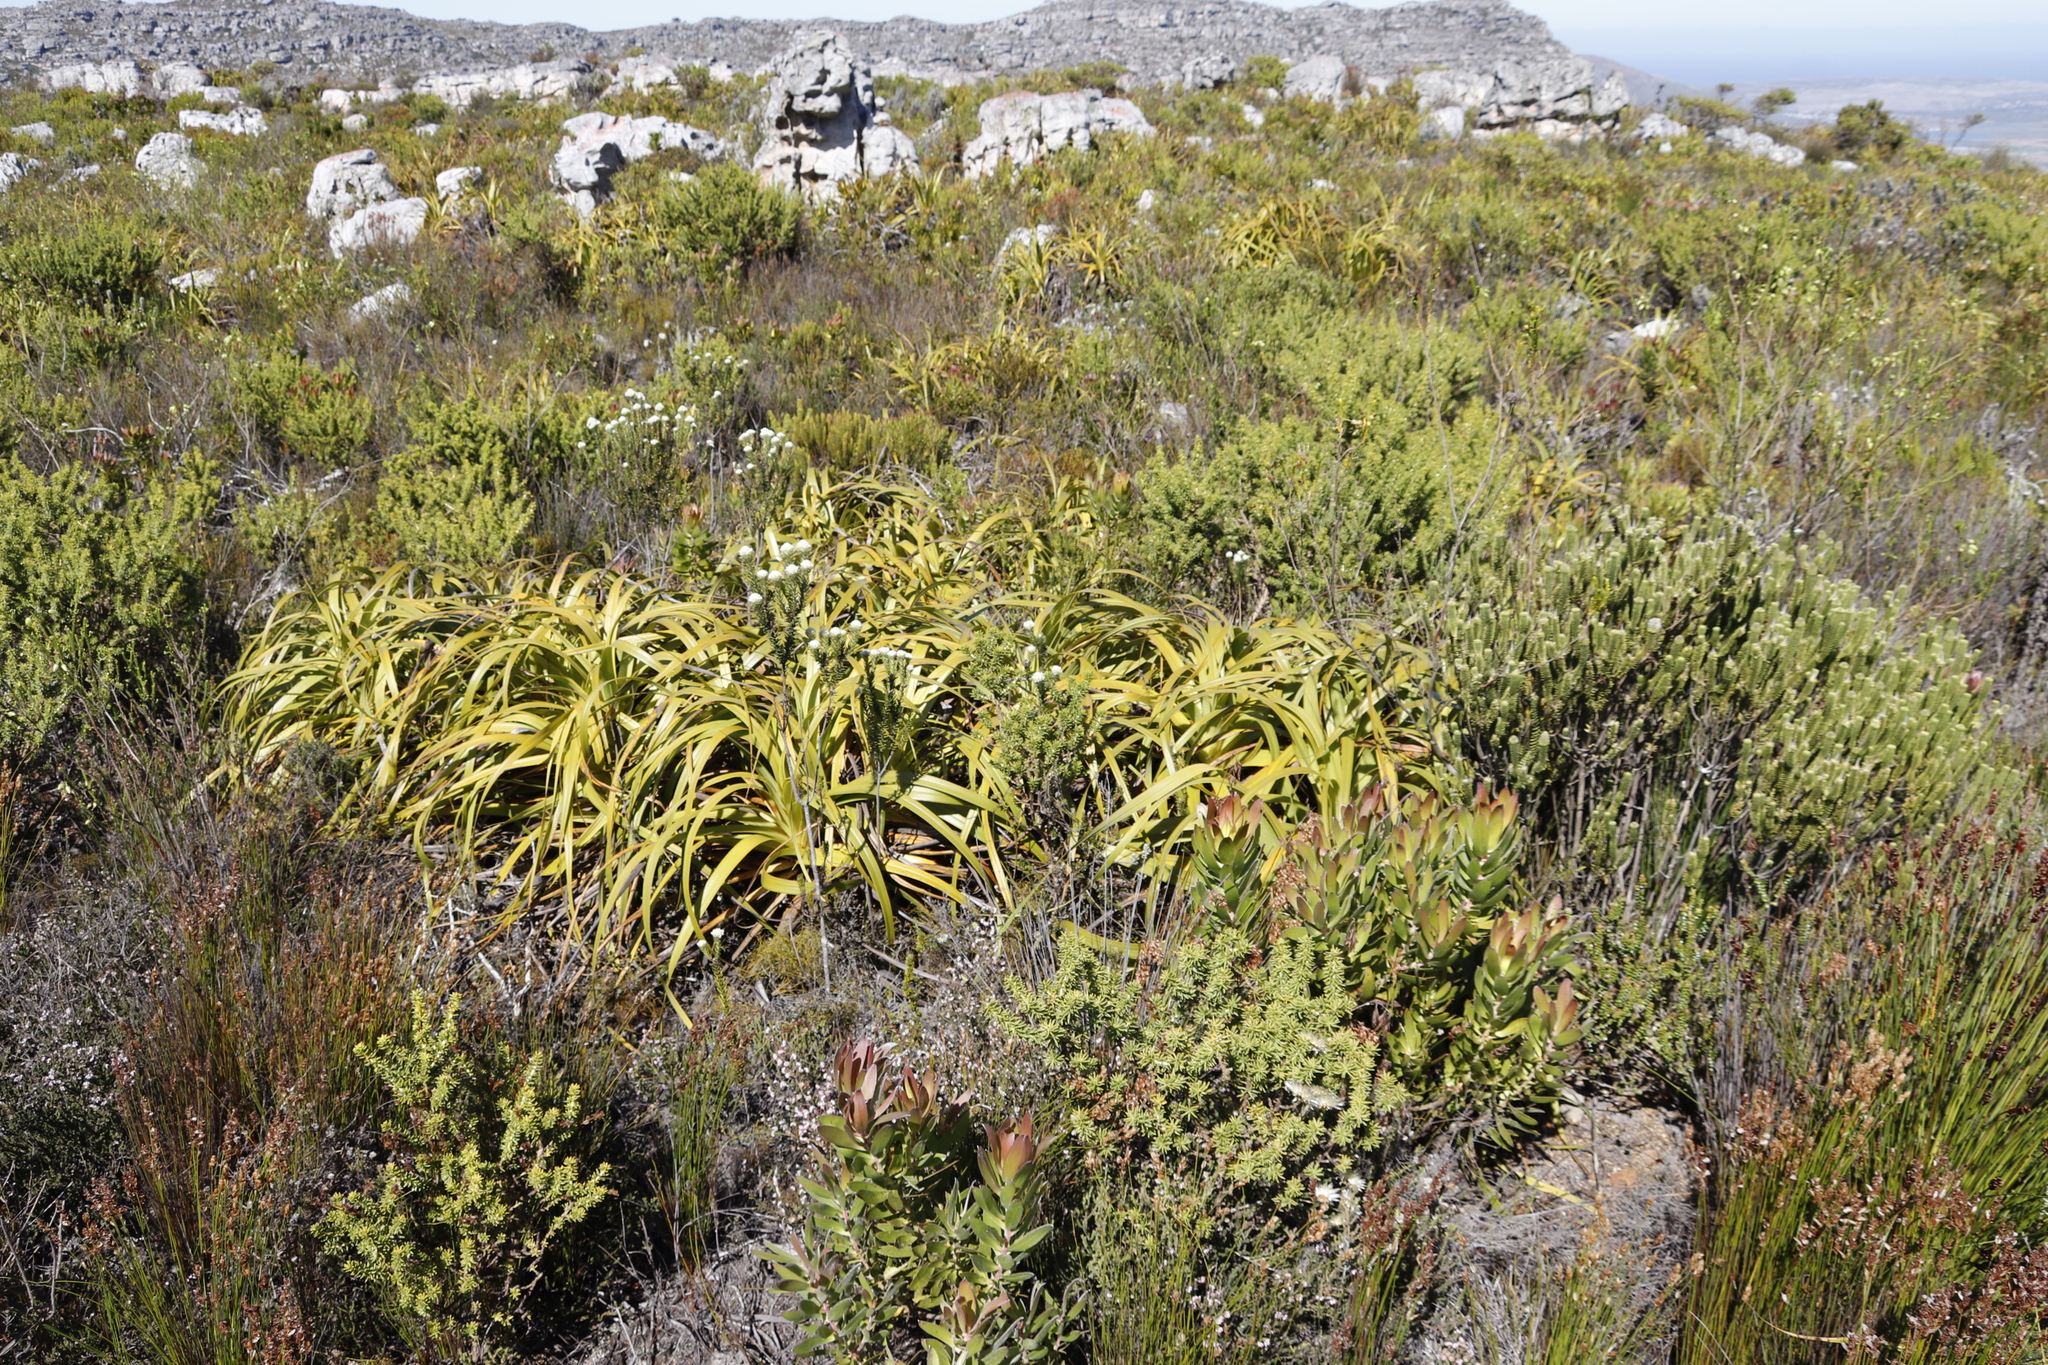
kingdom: Plantae
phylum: Tracheophyta
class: Liliopsida
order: Poales
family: Cyperaceae
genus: Tetraria
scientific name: Tetraria thermalis
